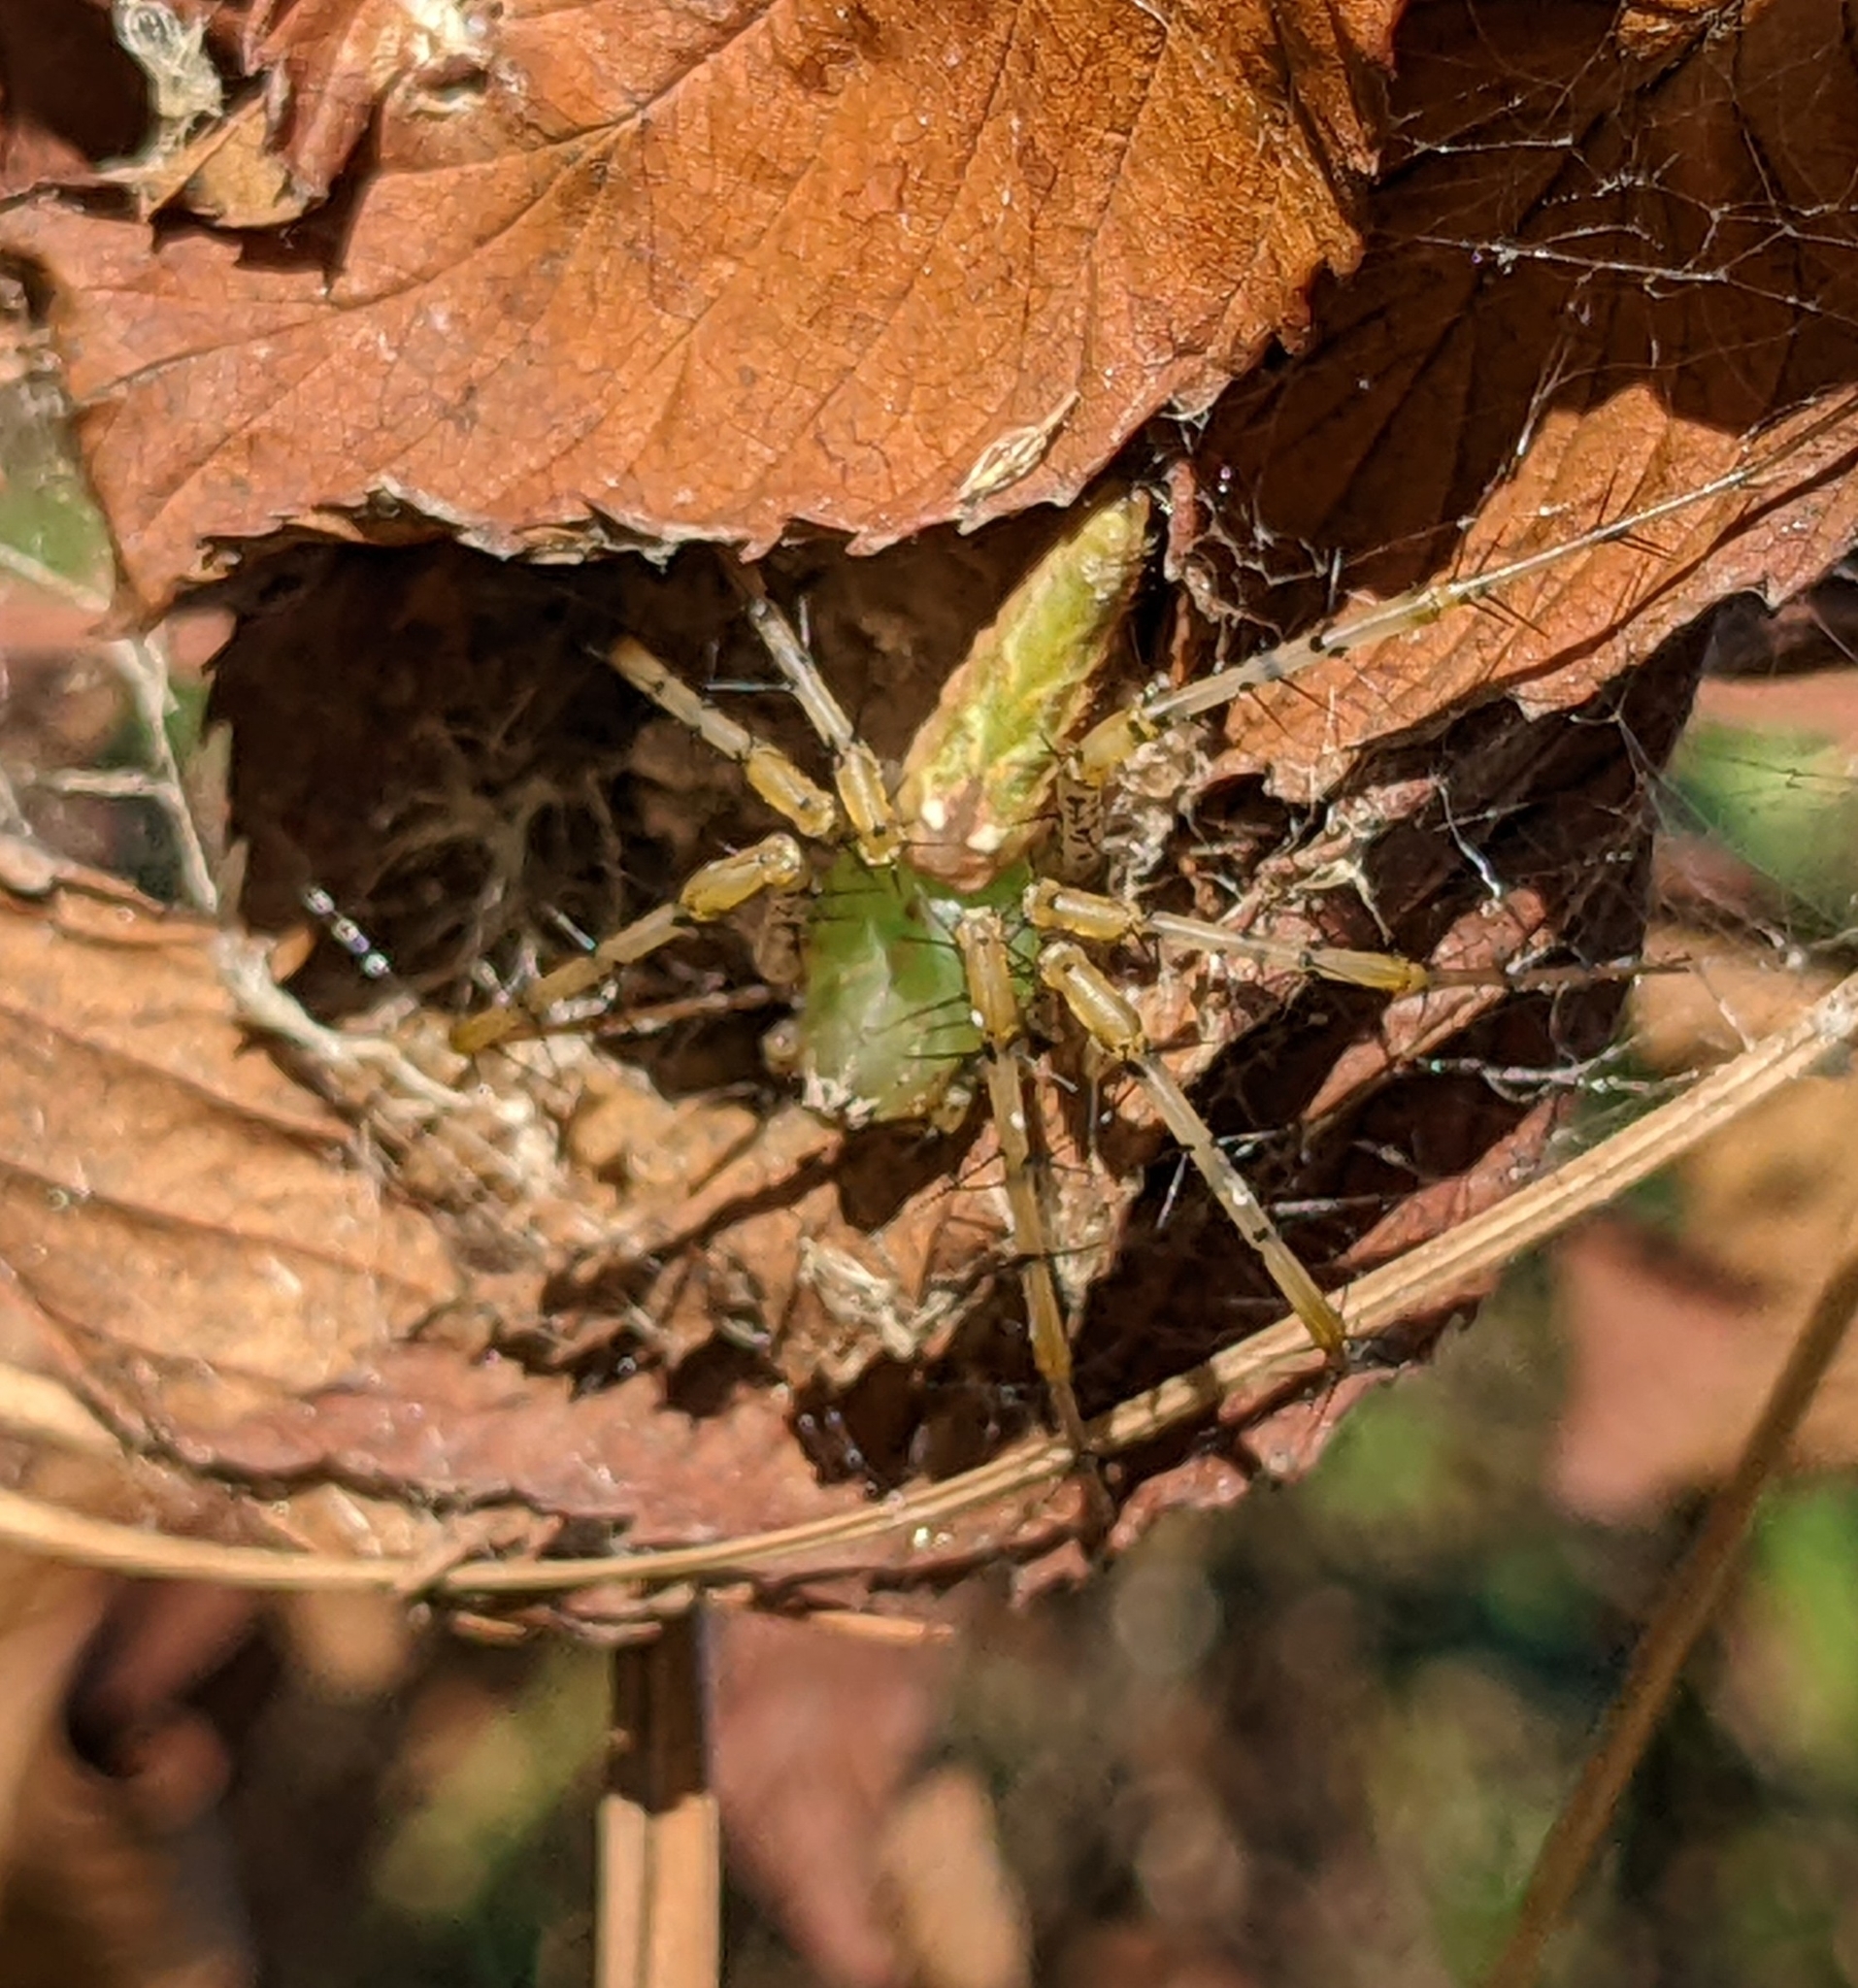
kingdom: Animalia
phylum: Arthropoda
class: Arachnida
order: Araneae
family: Oxyopidae
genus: Peucetia
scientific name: Peucetia viridans
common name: Lynx spiders
